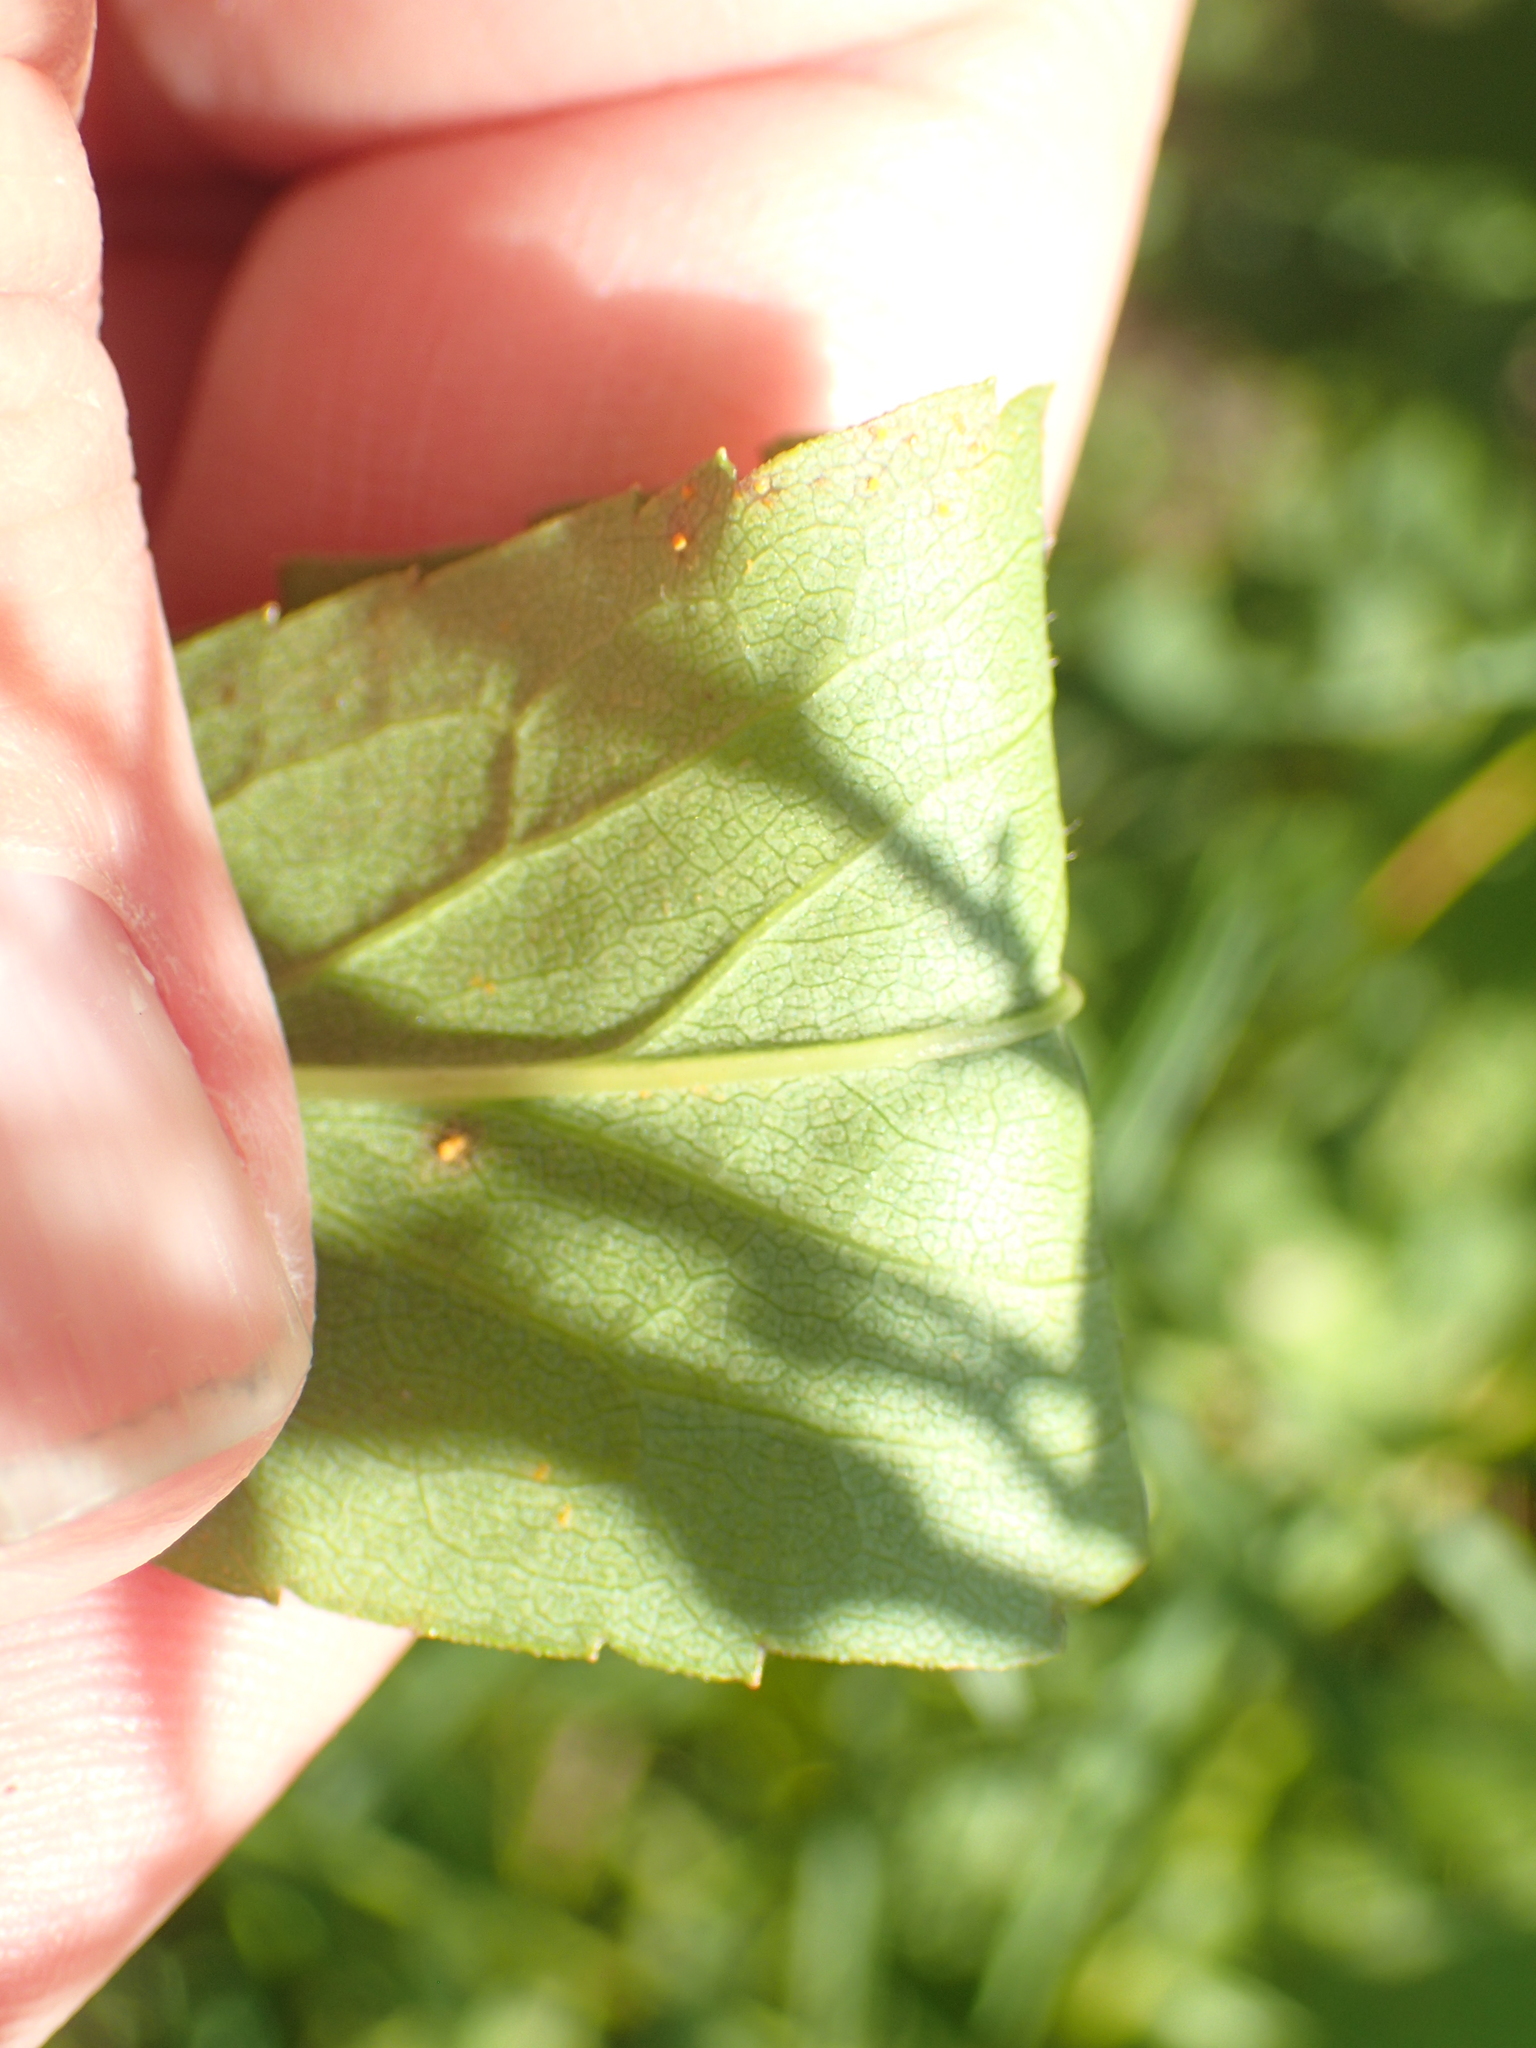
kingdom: Plantae
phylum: Tracheophyta
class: Magnoliopsida
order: Asterales
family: Asteraceae
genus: Solidago
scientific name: Solidago latissimifolia
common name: Elliott's goldenrod
